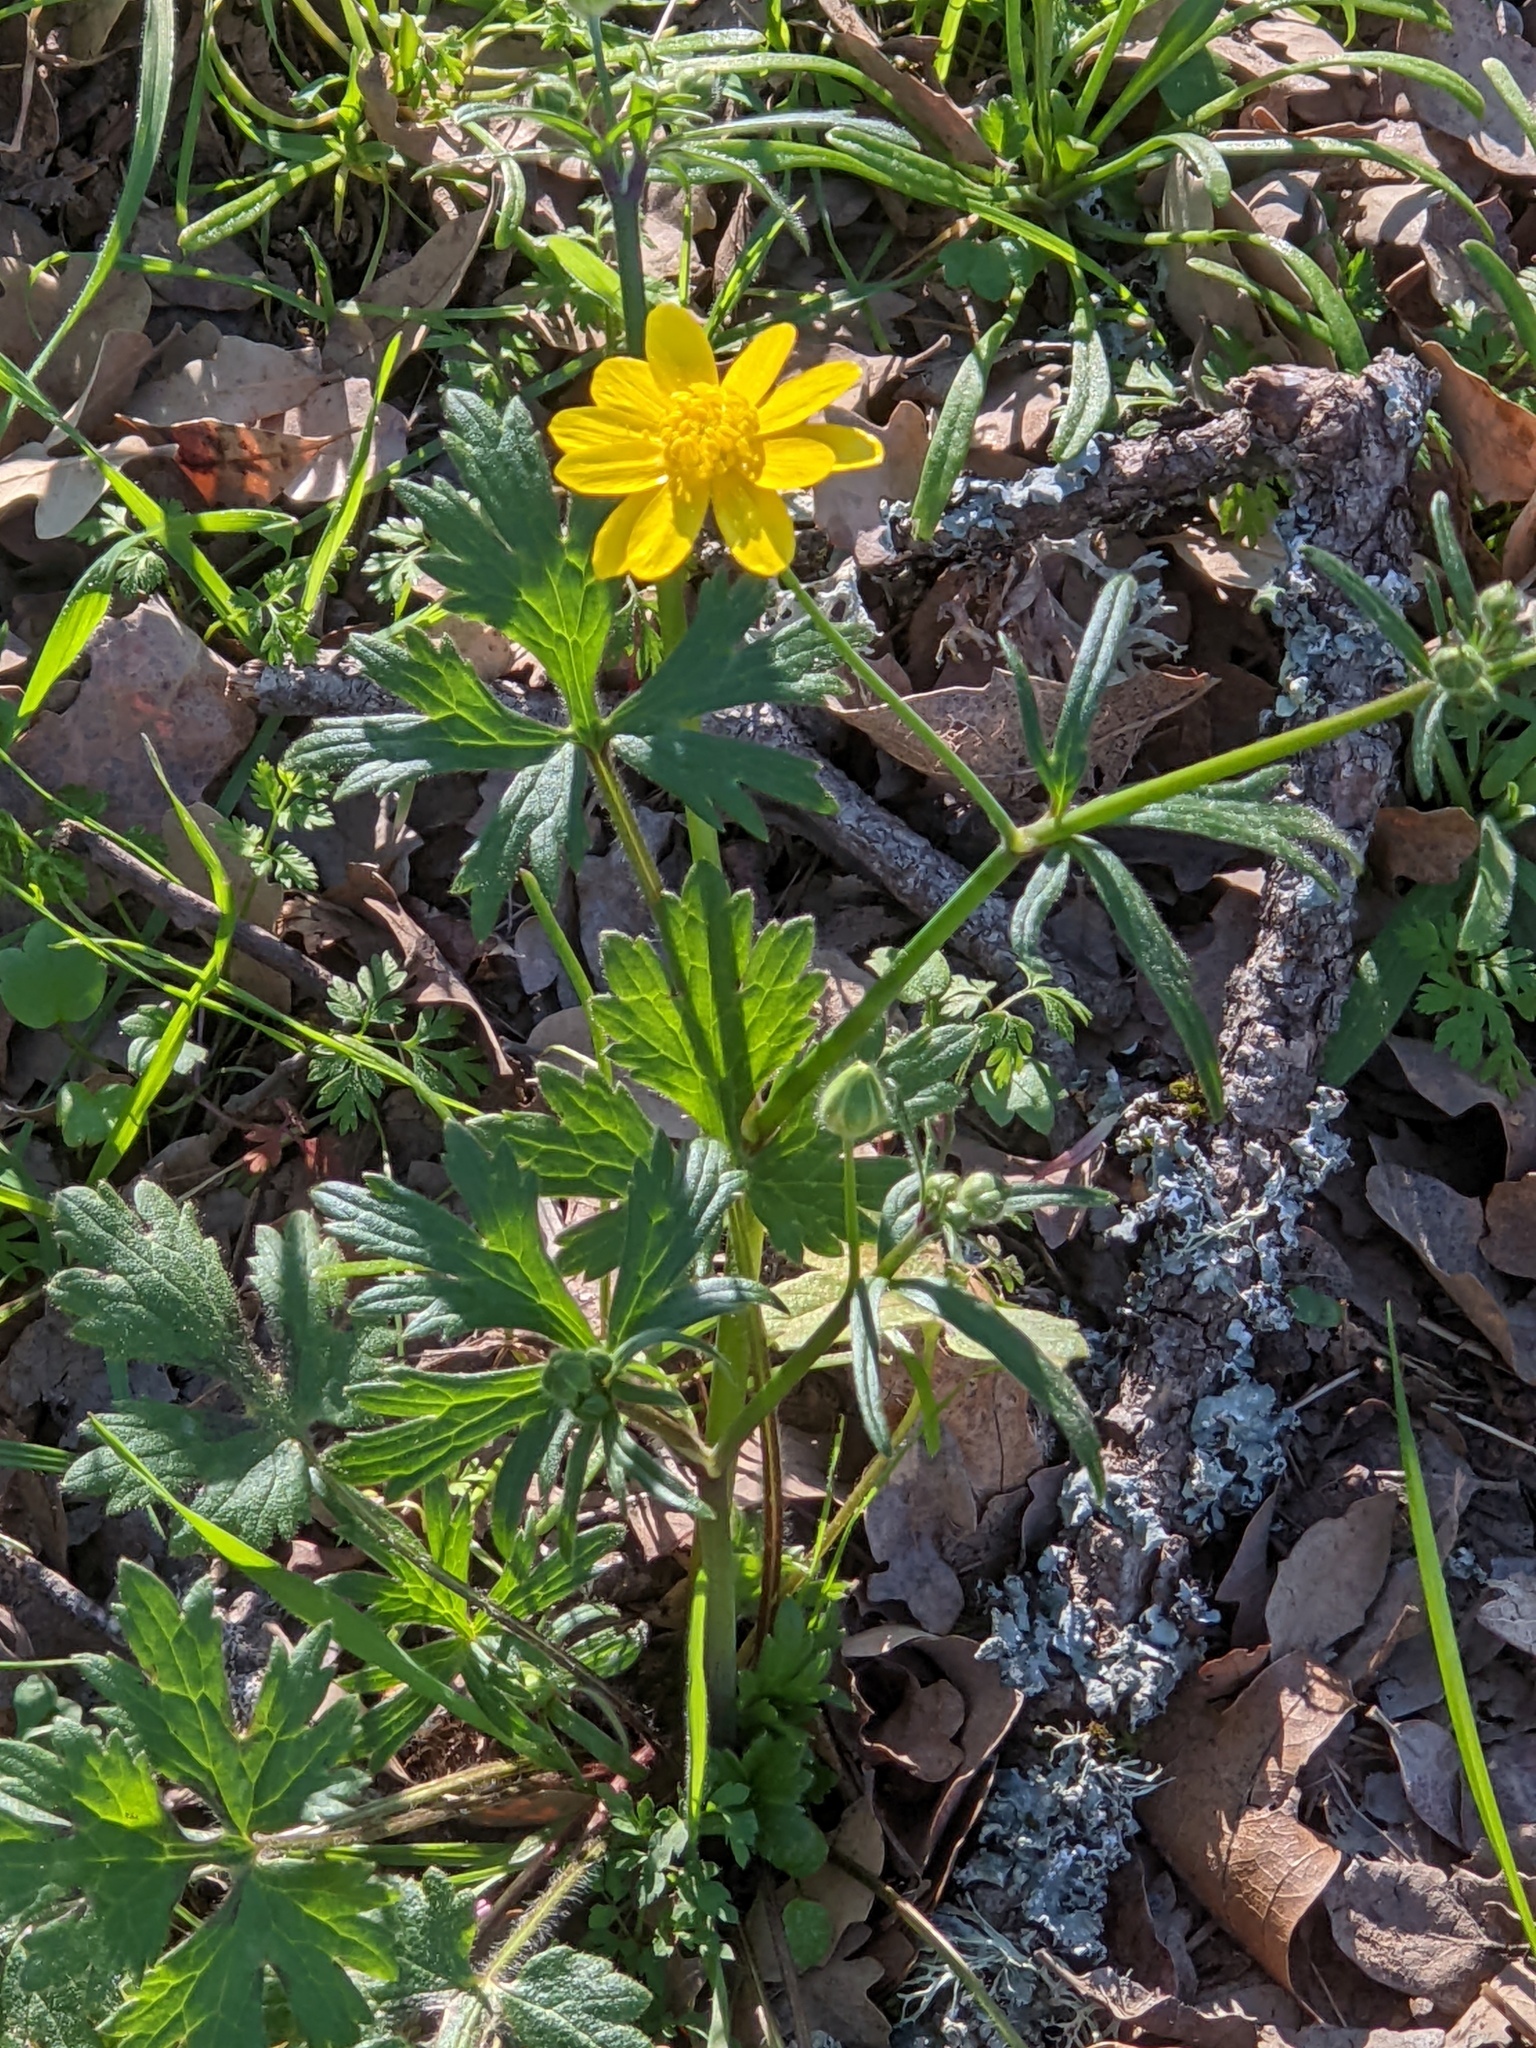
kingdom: Plantae
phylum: Tracheophyta
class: Magnoliopsida
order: Ranunculales
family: Ranunculaceae
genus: Ranunculus
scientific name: Ranunculus californicus
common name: California buttercup
